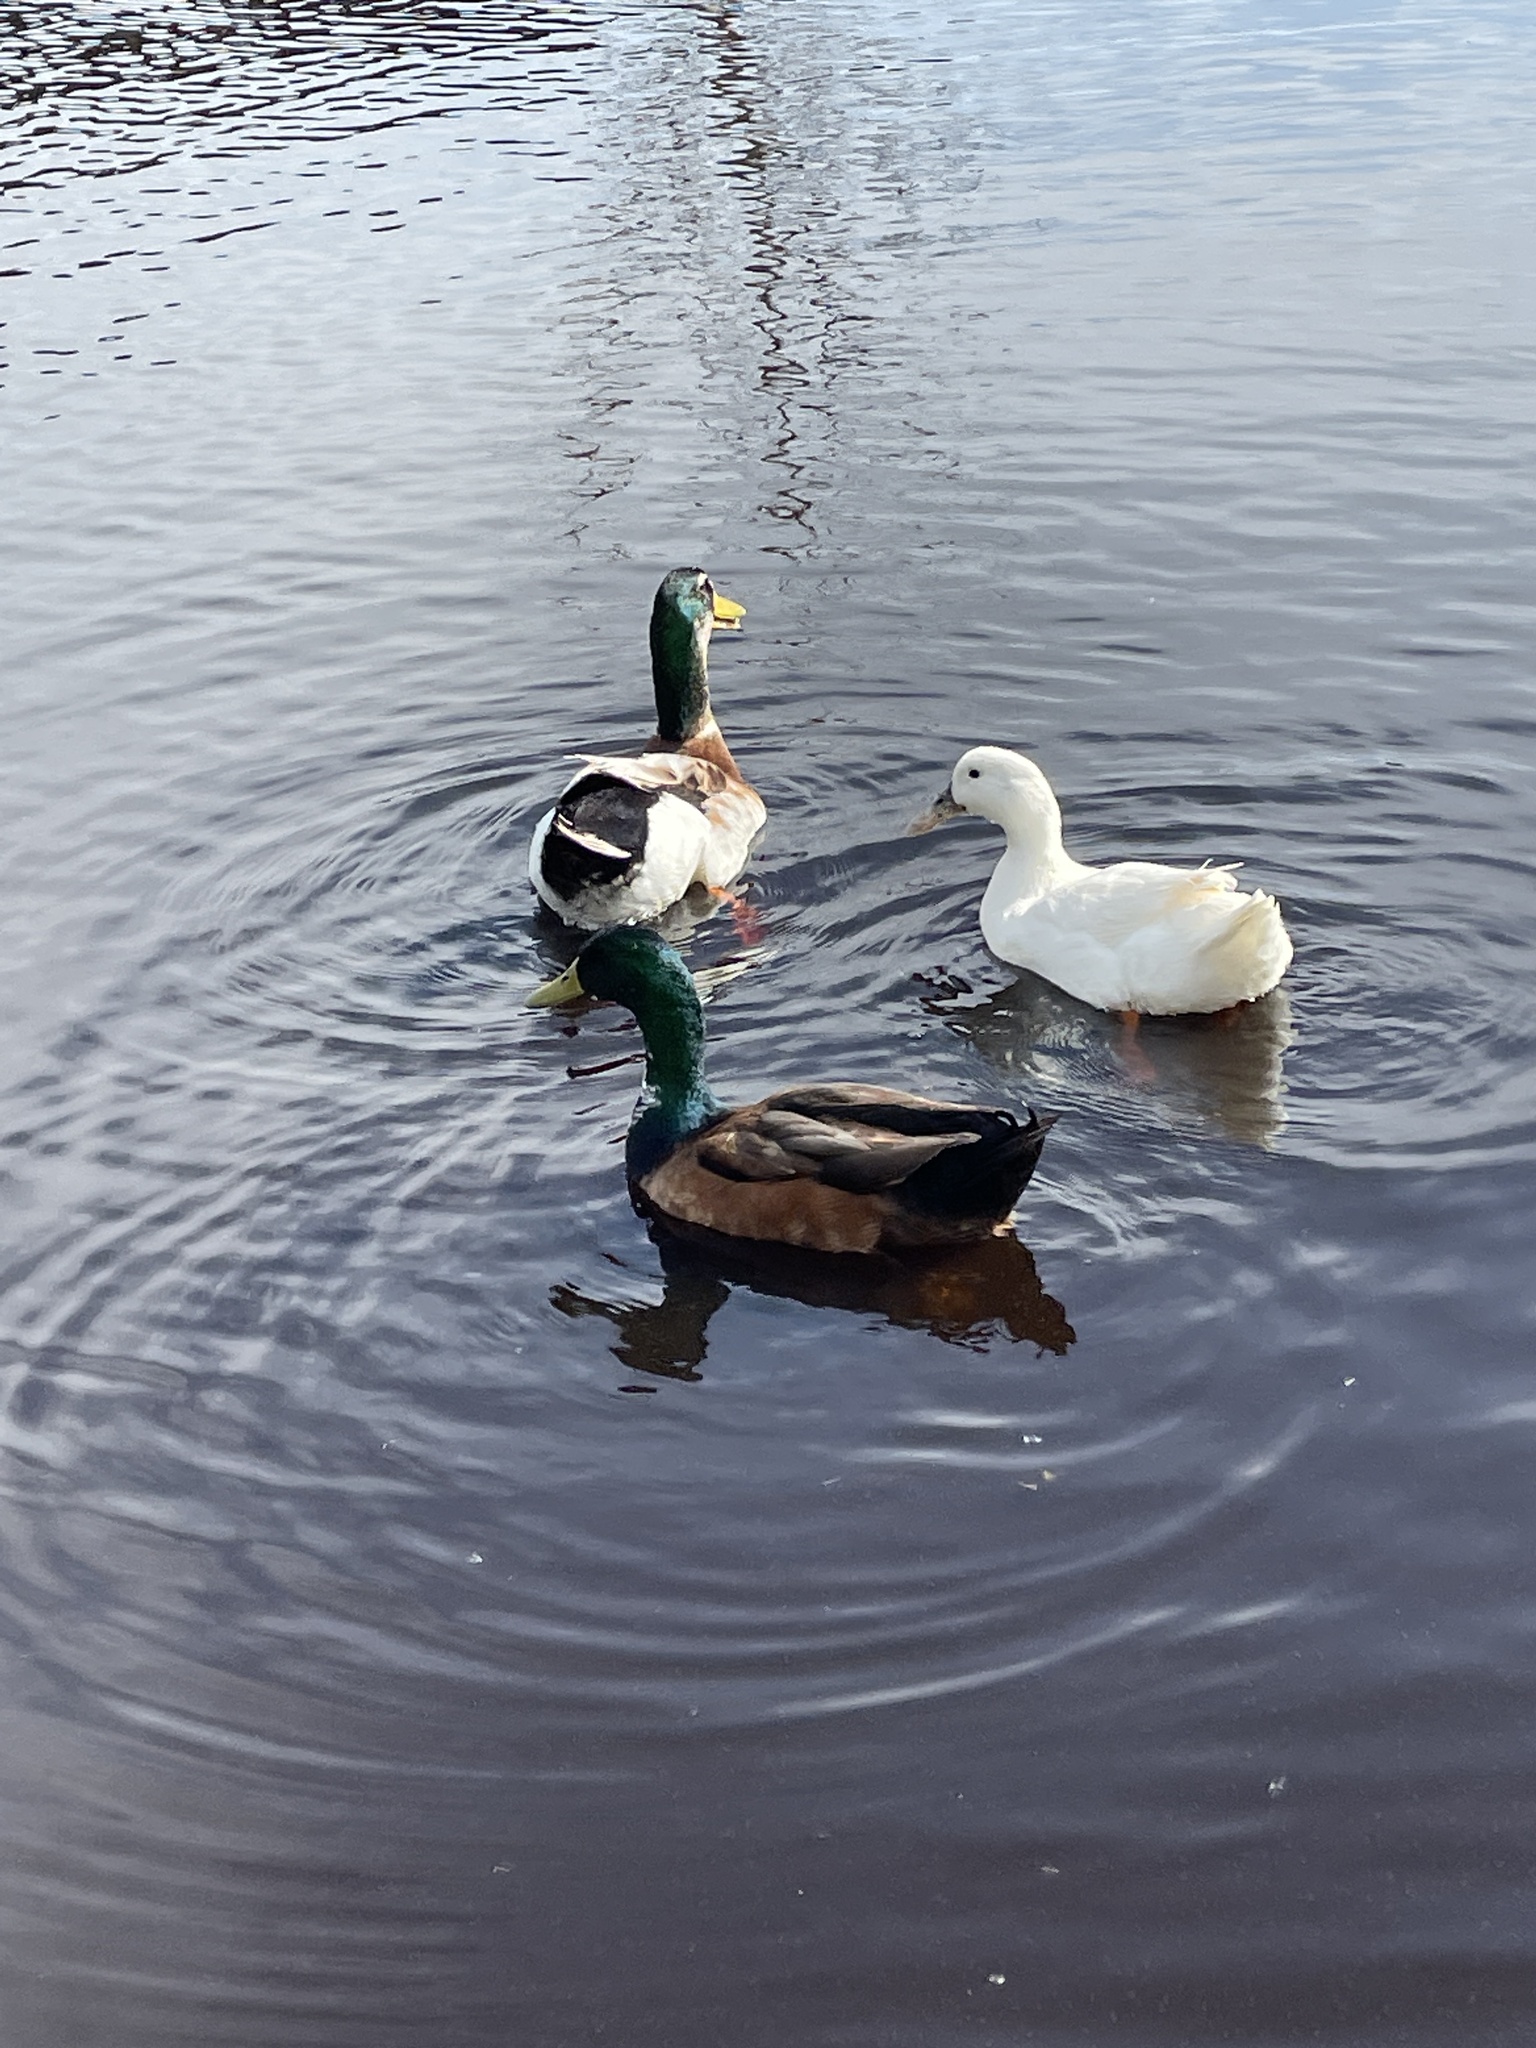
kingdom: Animalia
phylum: Chordata
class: Aves
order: Anseriformes
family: Anatidae
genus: Anas
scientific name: Anas platyrhynchos
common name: Mallard
